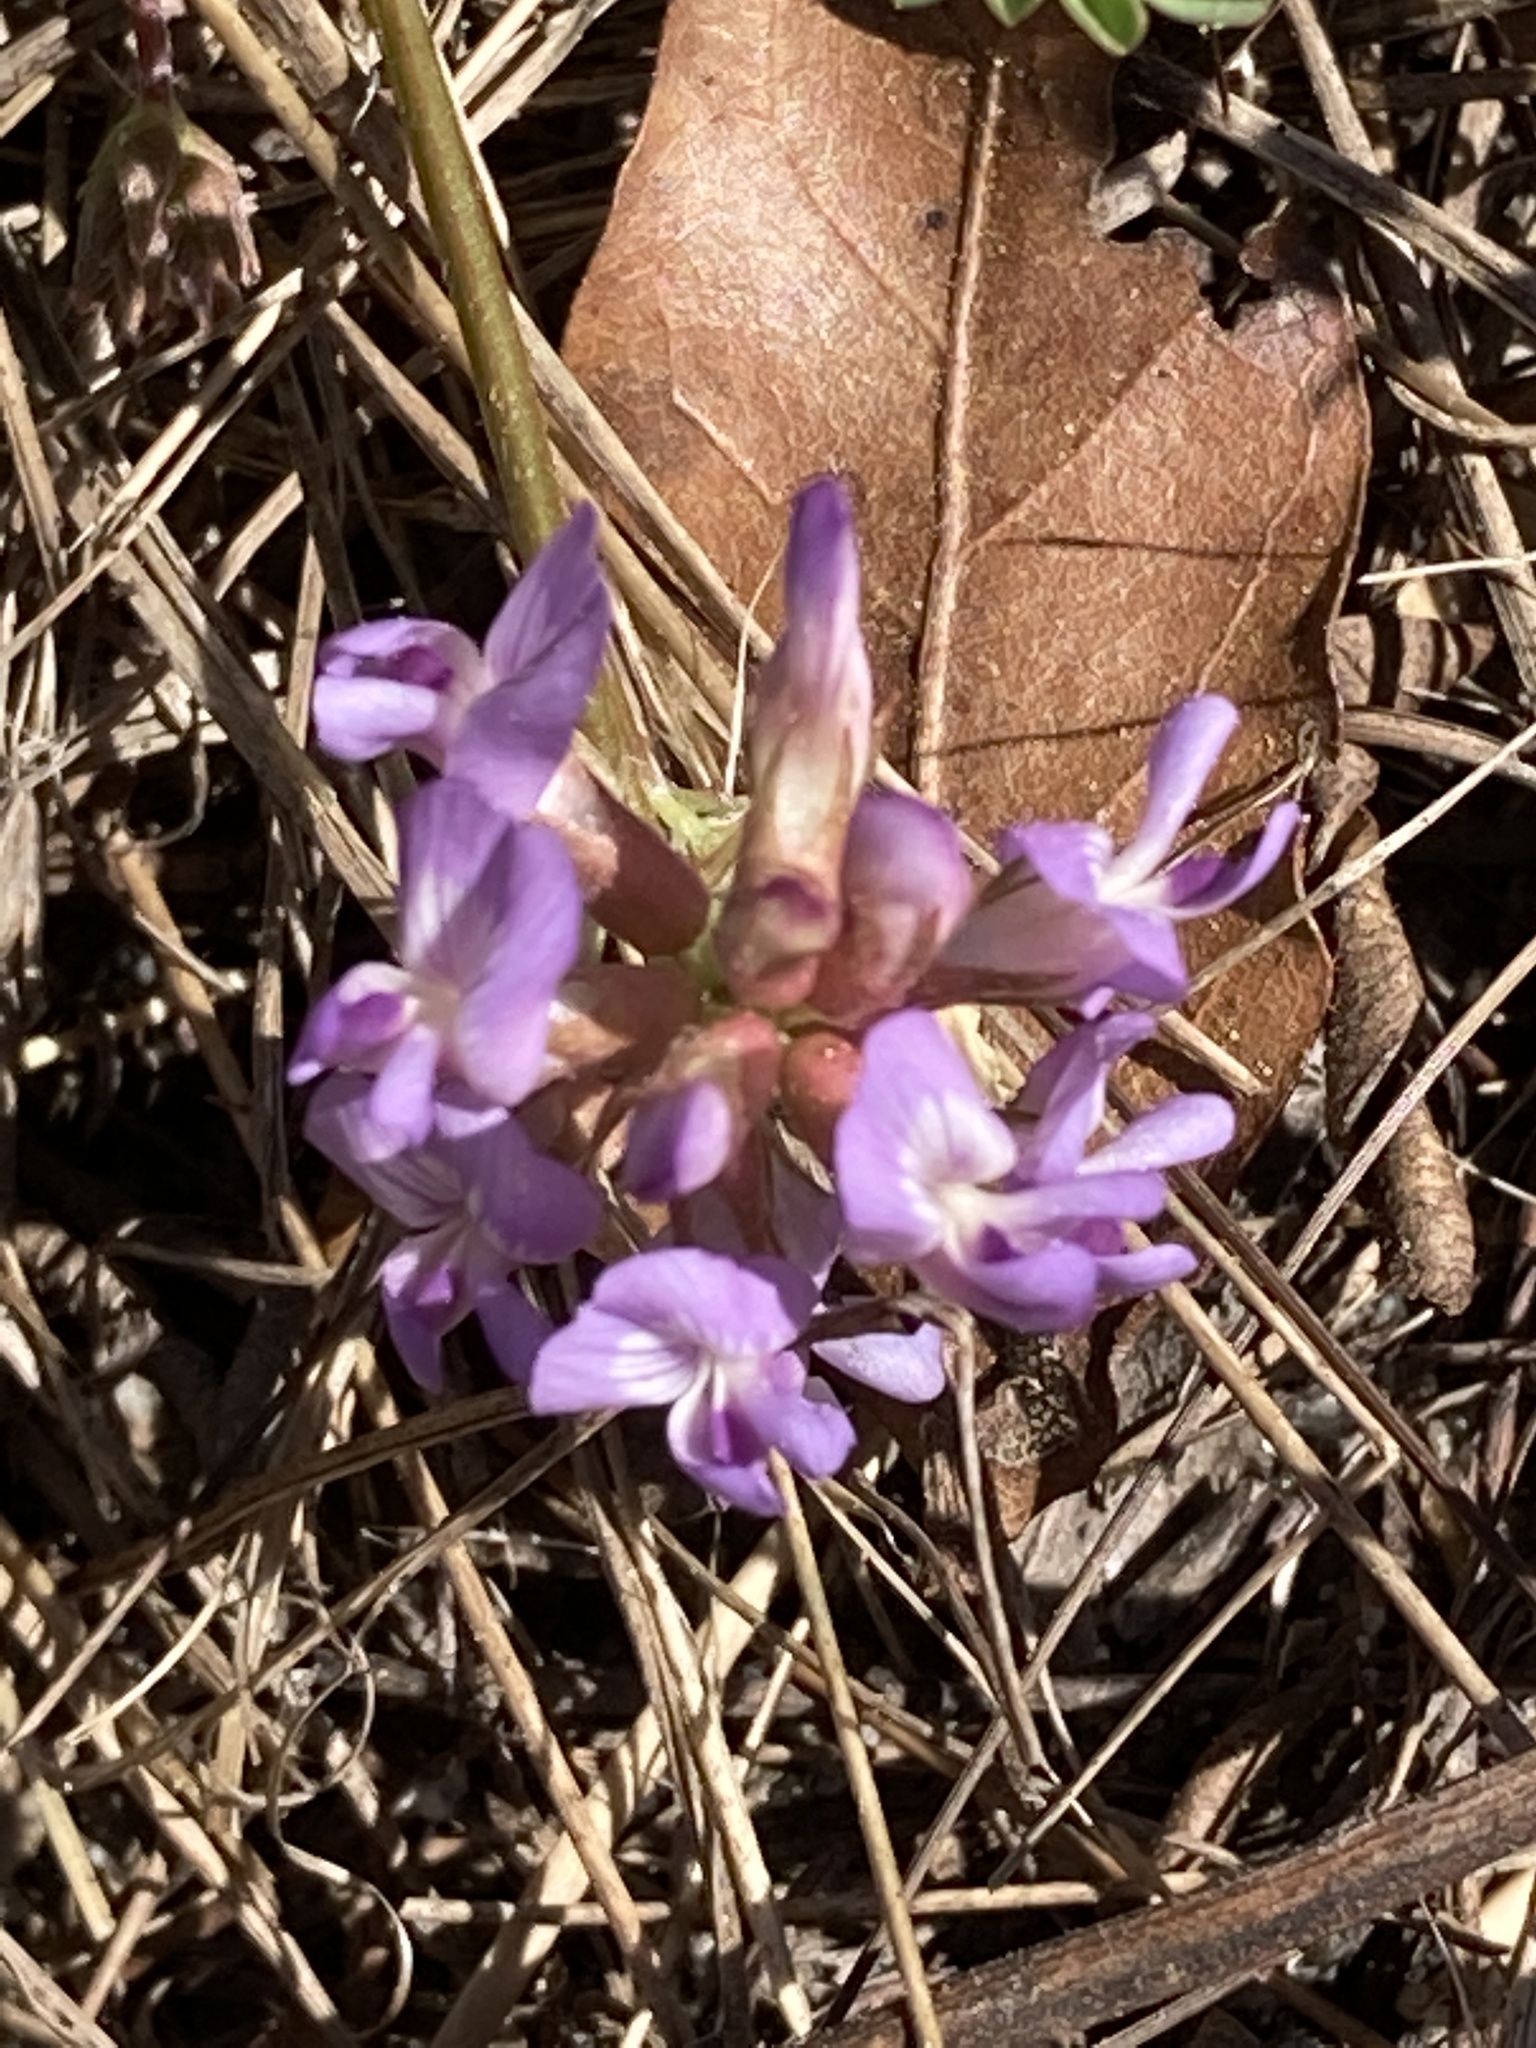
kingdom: Plantae
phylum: Tracheophyta
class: Magnoliopsida
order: Fabales
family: Fabaceae
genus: Astragalus
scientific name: Astragalus obcordatus
